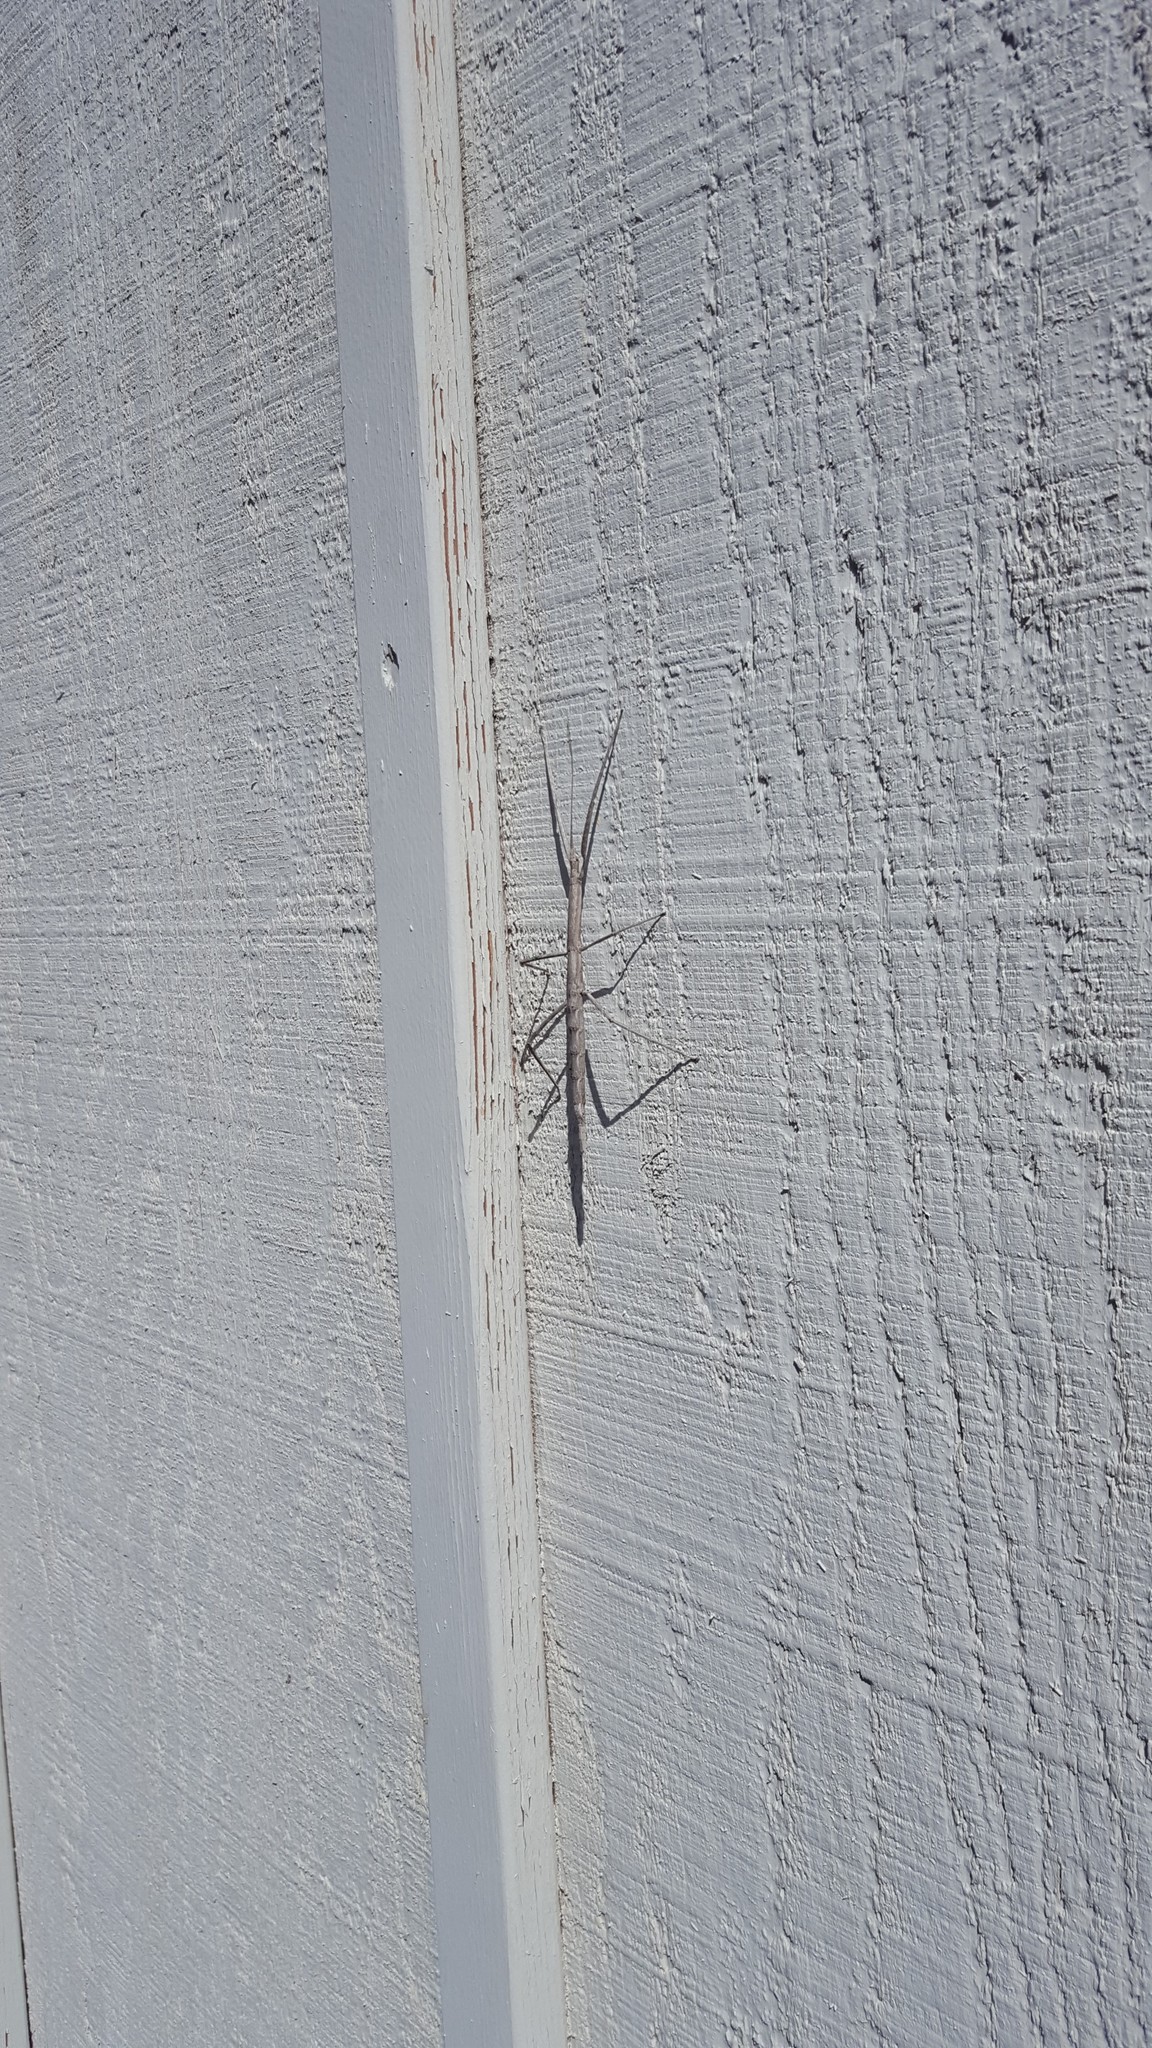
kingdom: Animalia
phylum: Arthropoda
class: Insecta
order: Phasmida
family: Diapheromeridae
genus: Pseudosermyle
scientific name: Pseudosermyle catalinae
